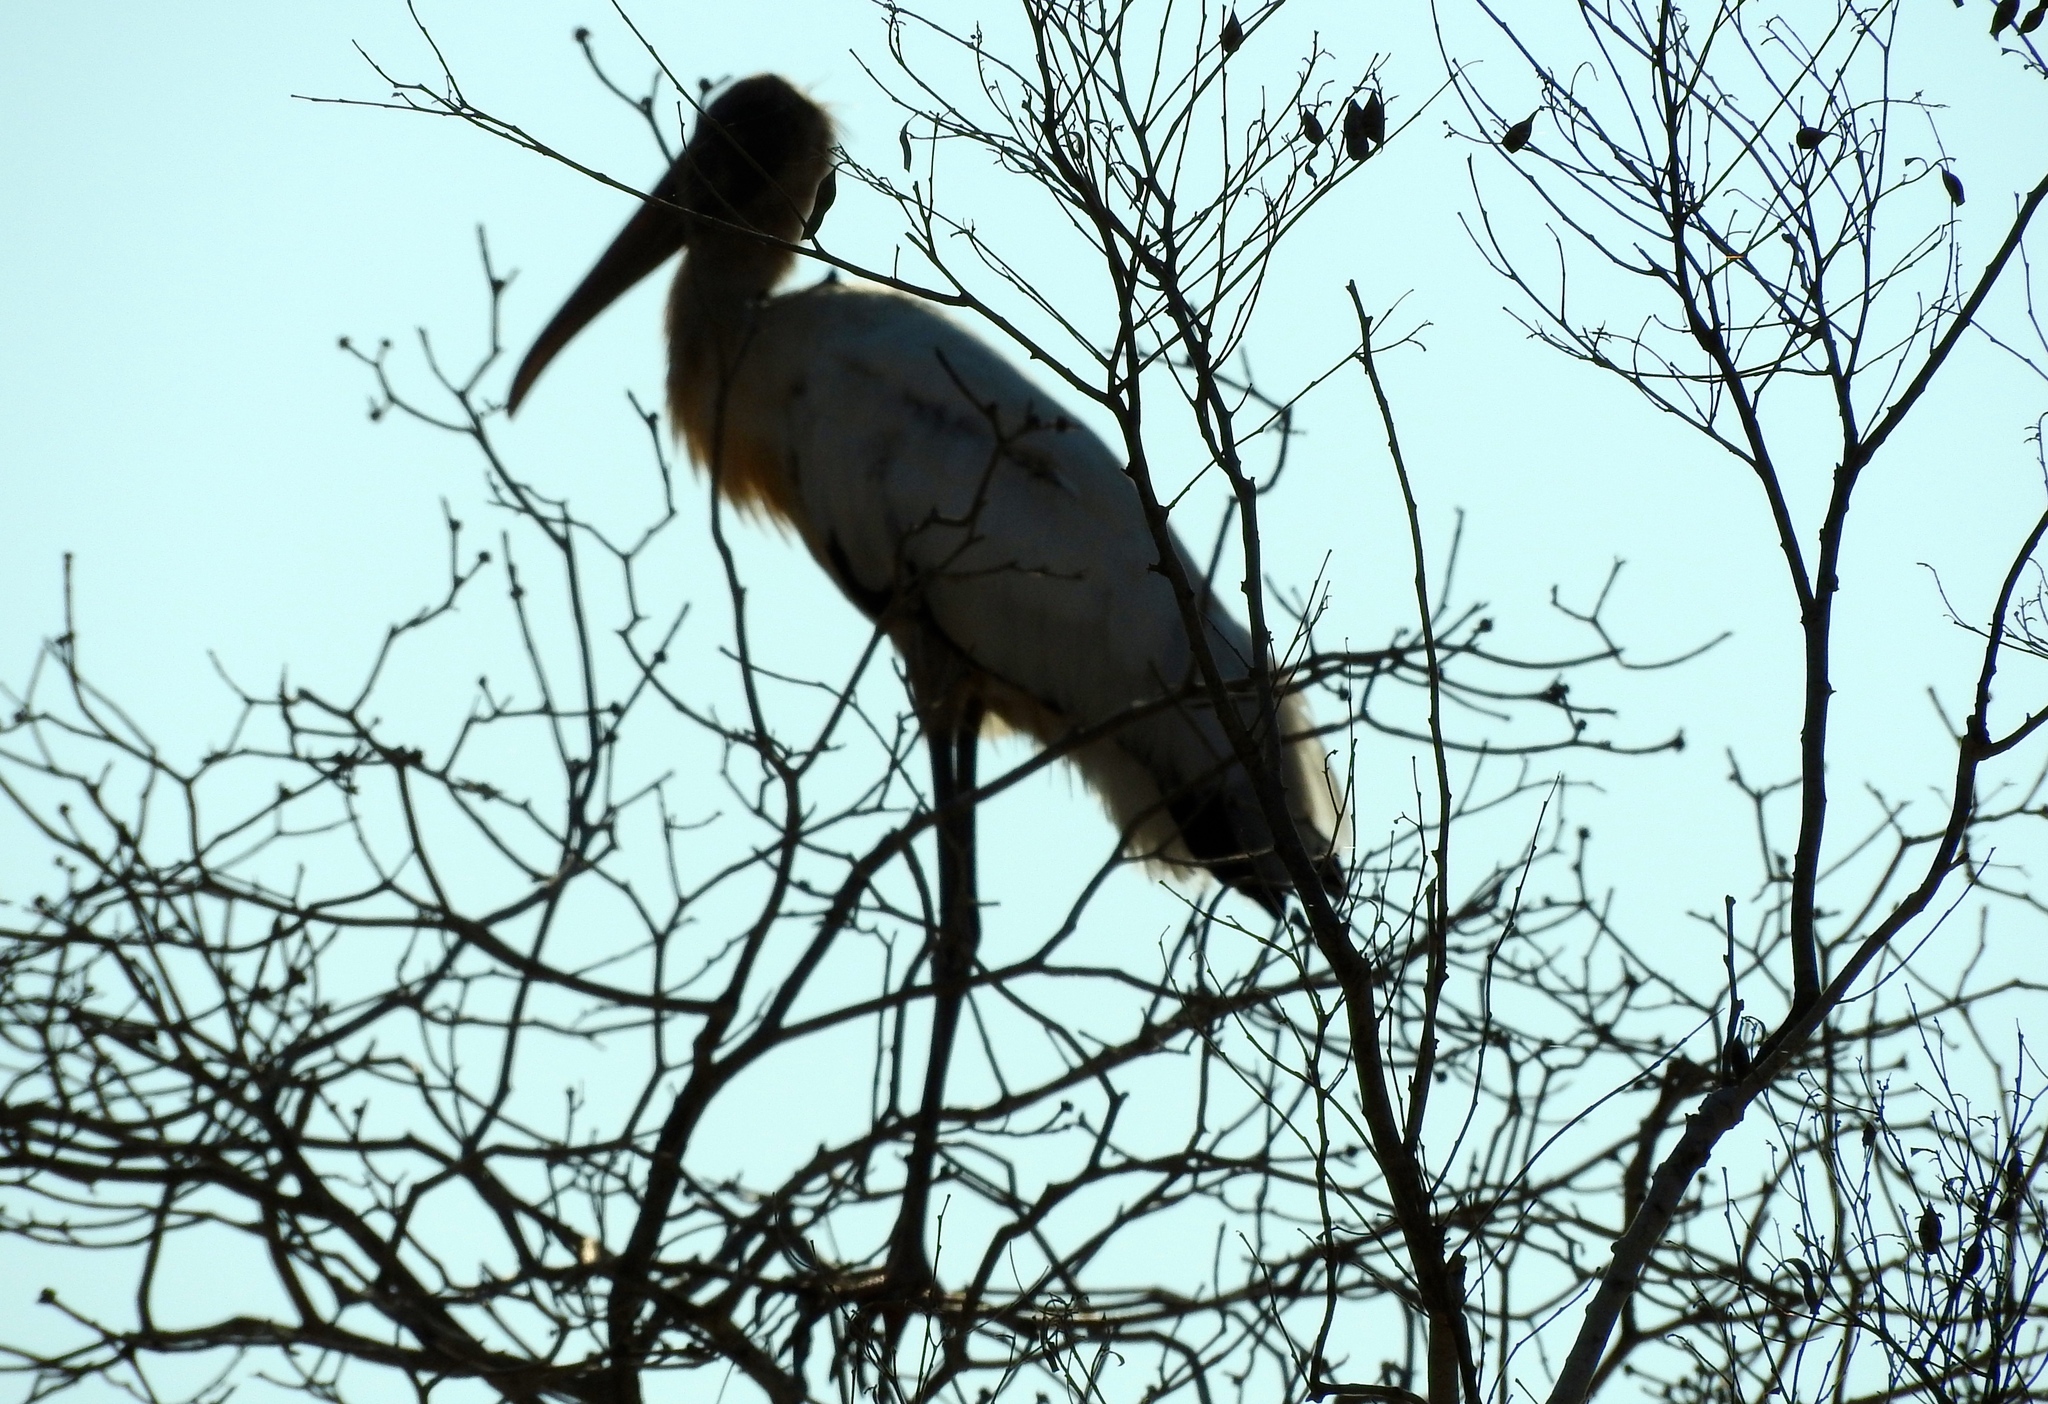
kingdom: Animalia
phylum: Chordata
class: Aves
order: Ciconiiformes
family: Ciconiidae
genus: Mycteria
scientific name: Mycteria americana
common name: Wood stork
